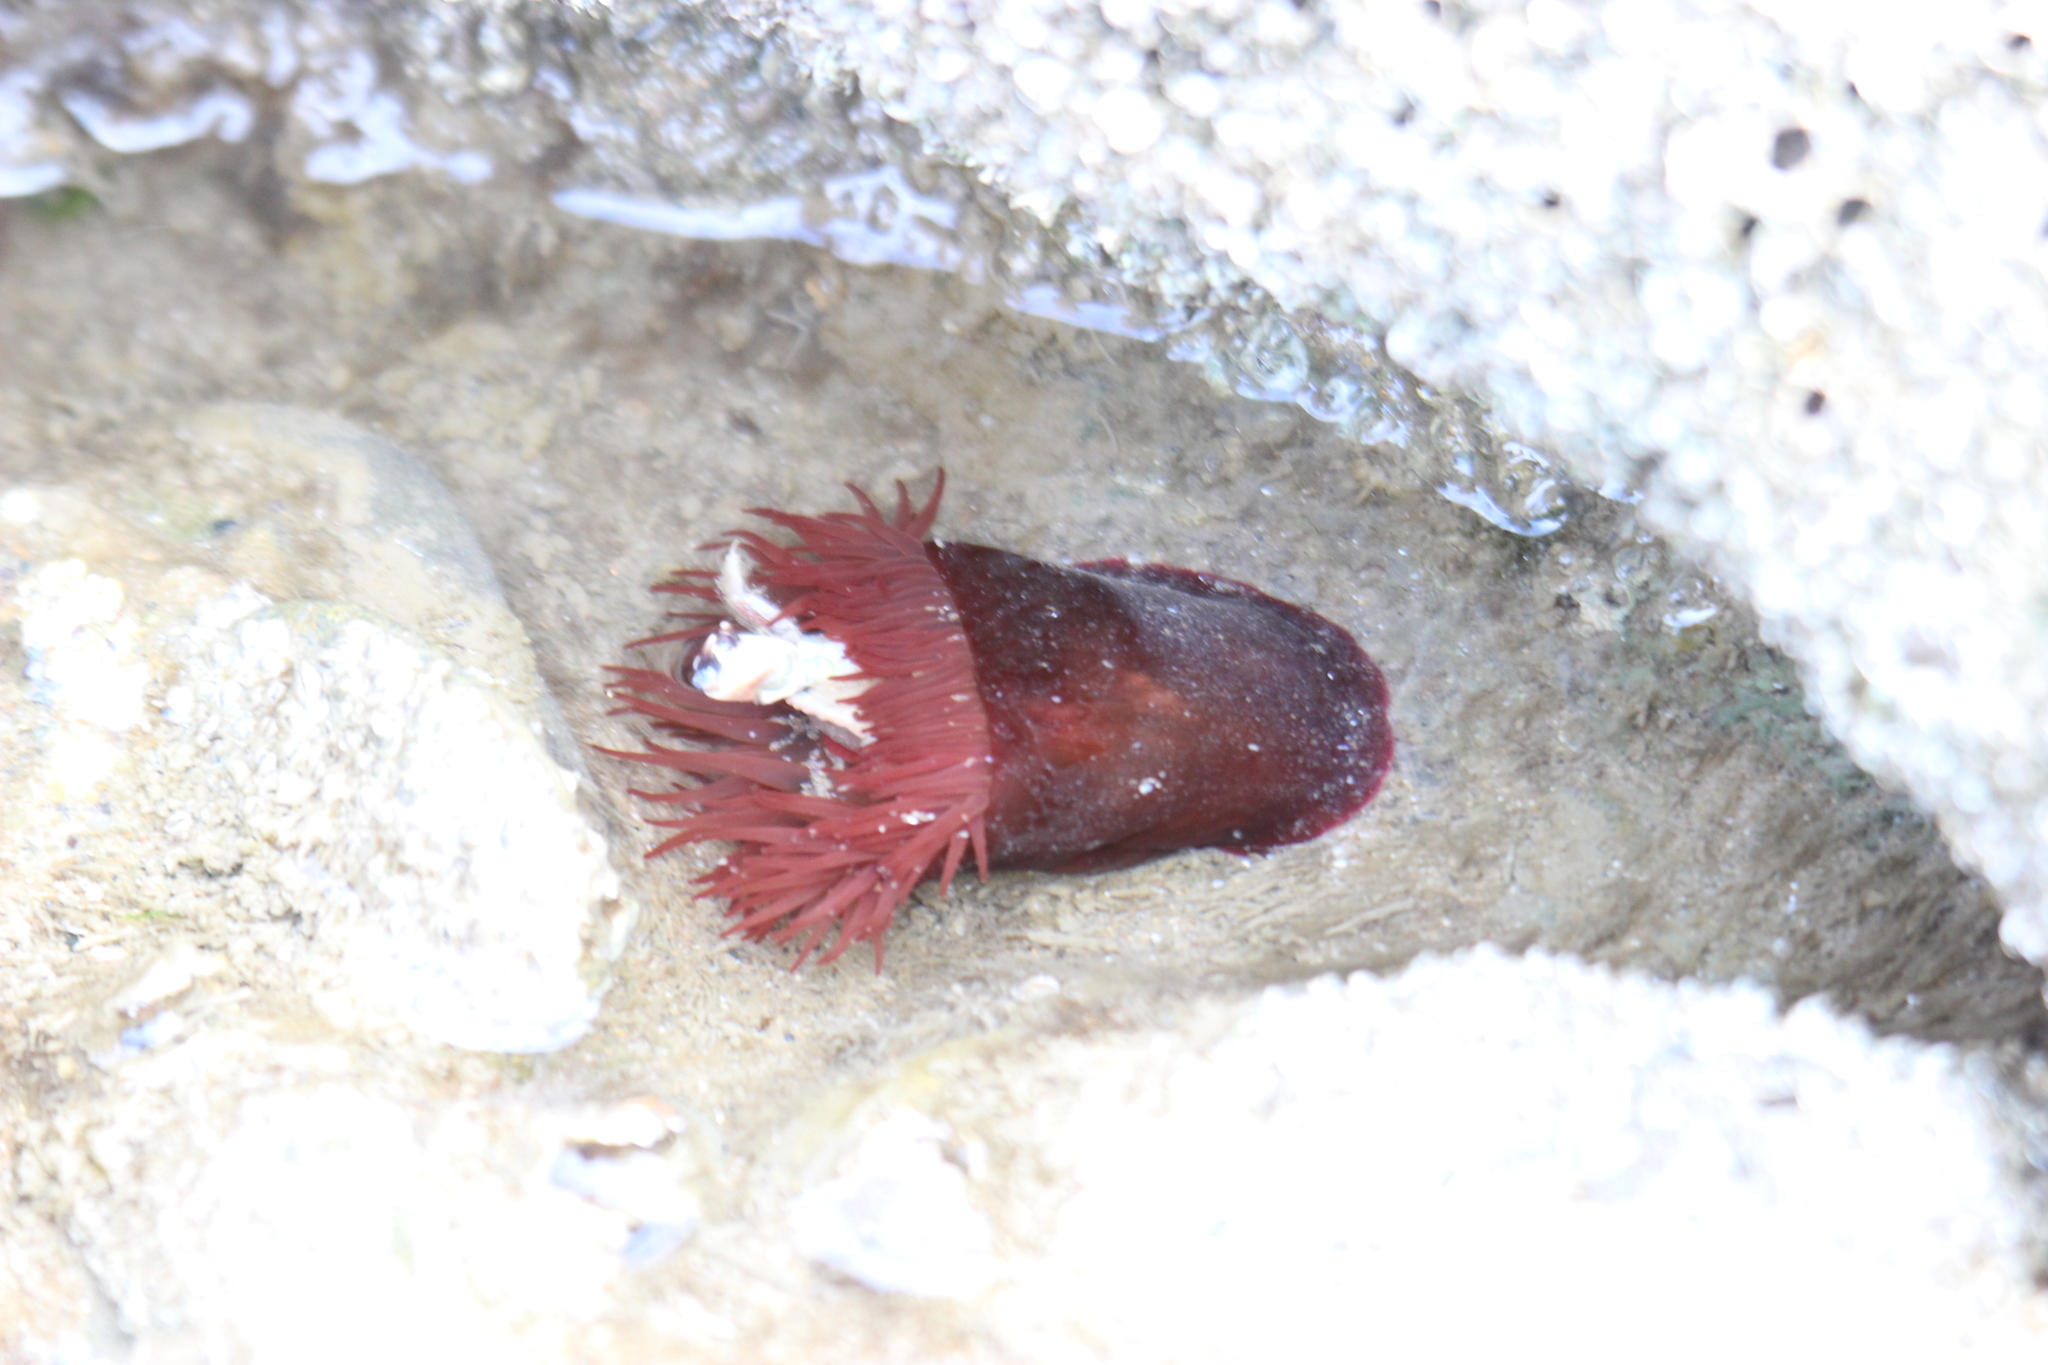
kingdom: Animalia
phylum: Cnidaria
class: Anthozoa
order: Actiniaria
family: Actiniidae
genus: Actinia
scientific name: Actinia equina
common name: Beadlet anemone
